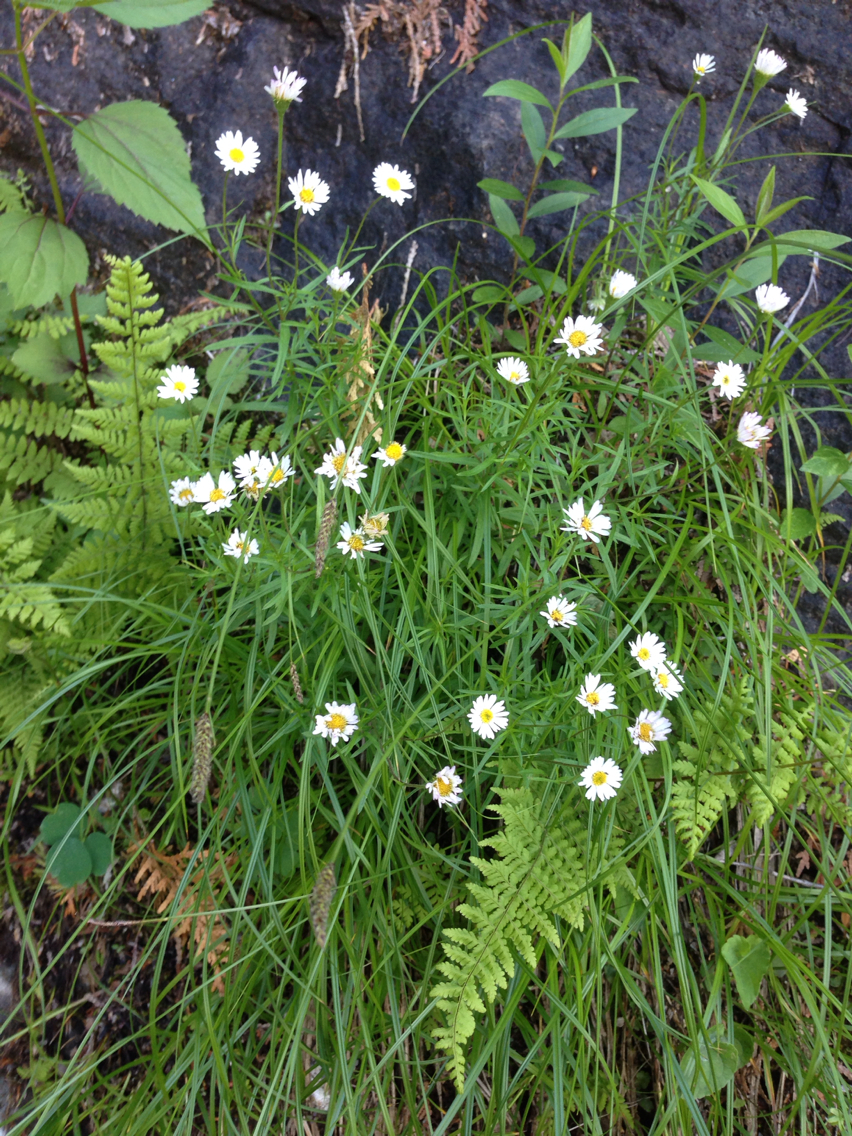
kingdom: Plantae
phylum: Tracheophyta
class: Liliopsida
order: Poales
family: Cyperaceae
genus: Carex
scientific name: Carex scirpoidea
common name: Canada single-spike sedge
